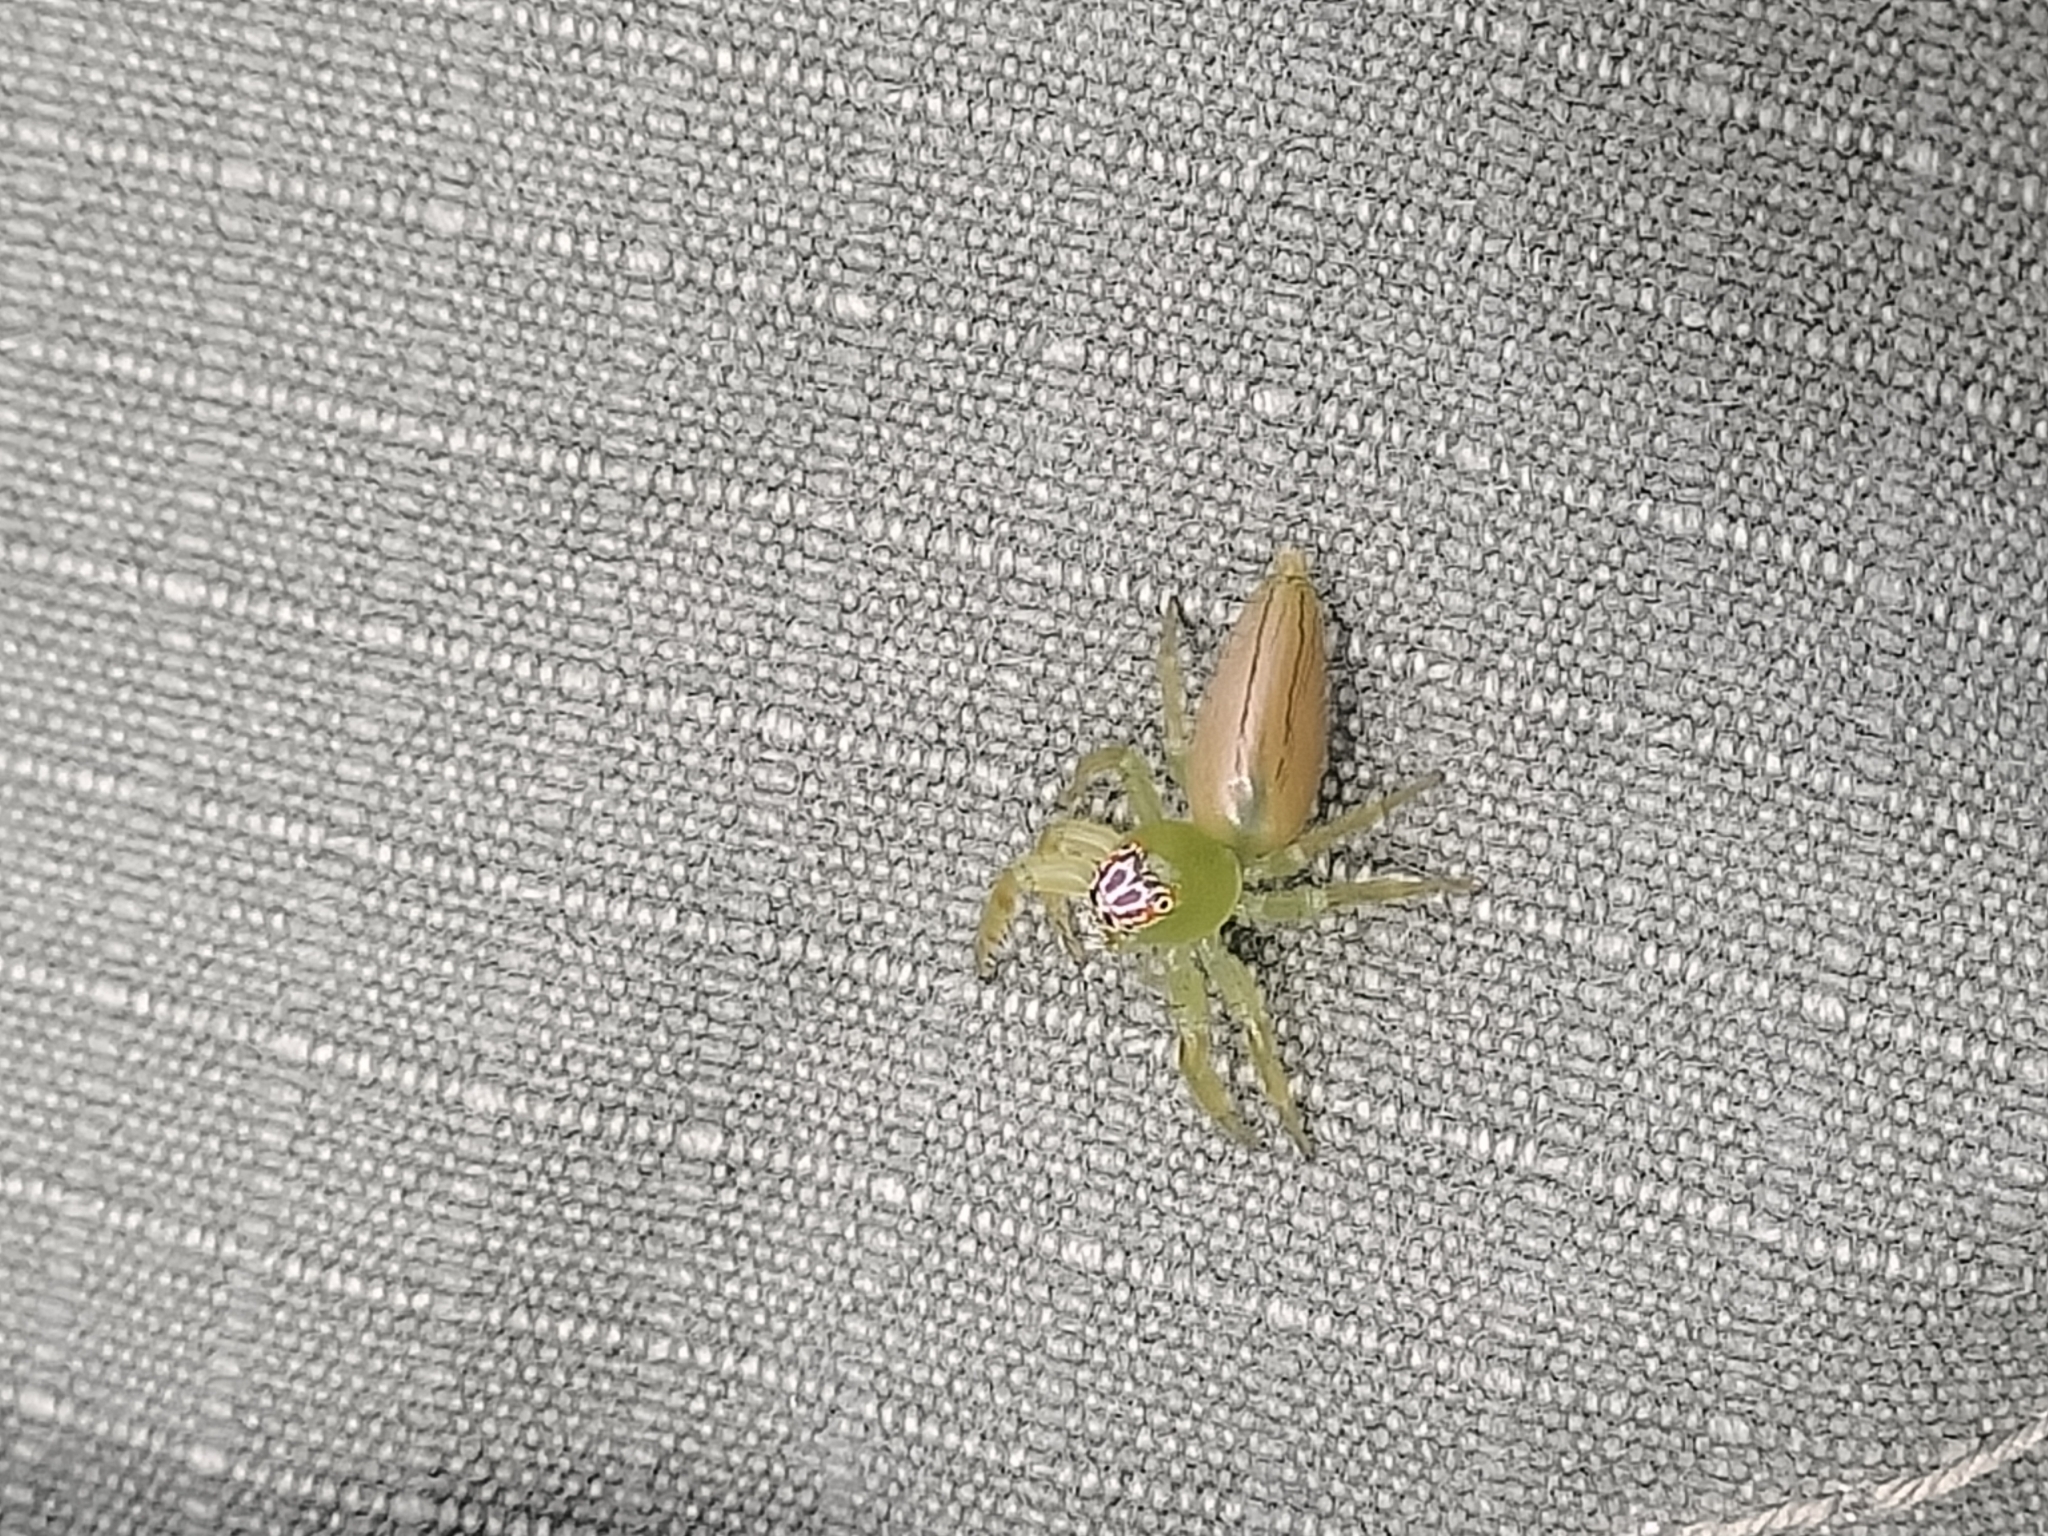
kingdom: Animalia
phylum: Arthropoda
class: Arachnida
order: Araneae
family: Salticidae
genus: Mopsus
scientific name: Mopsus mormon
